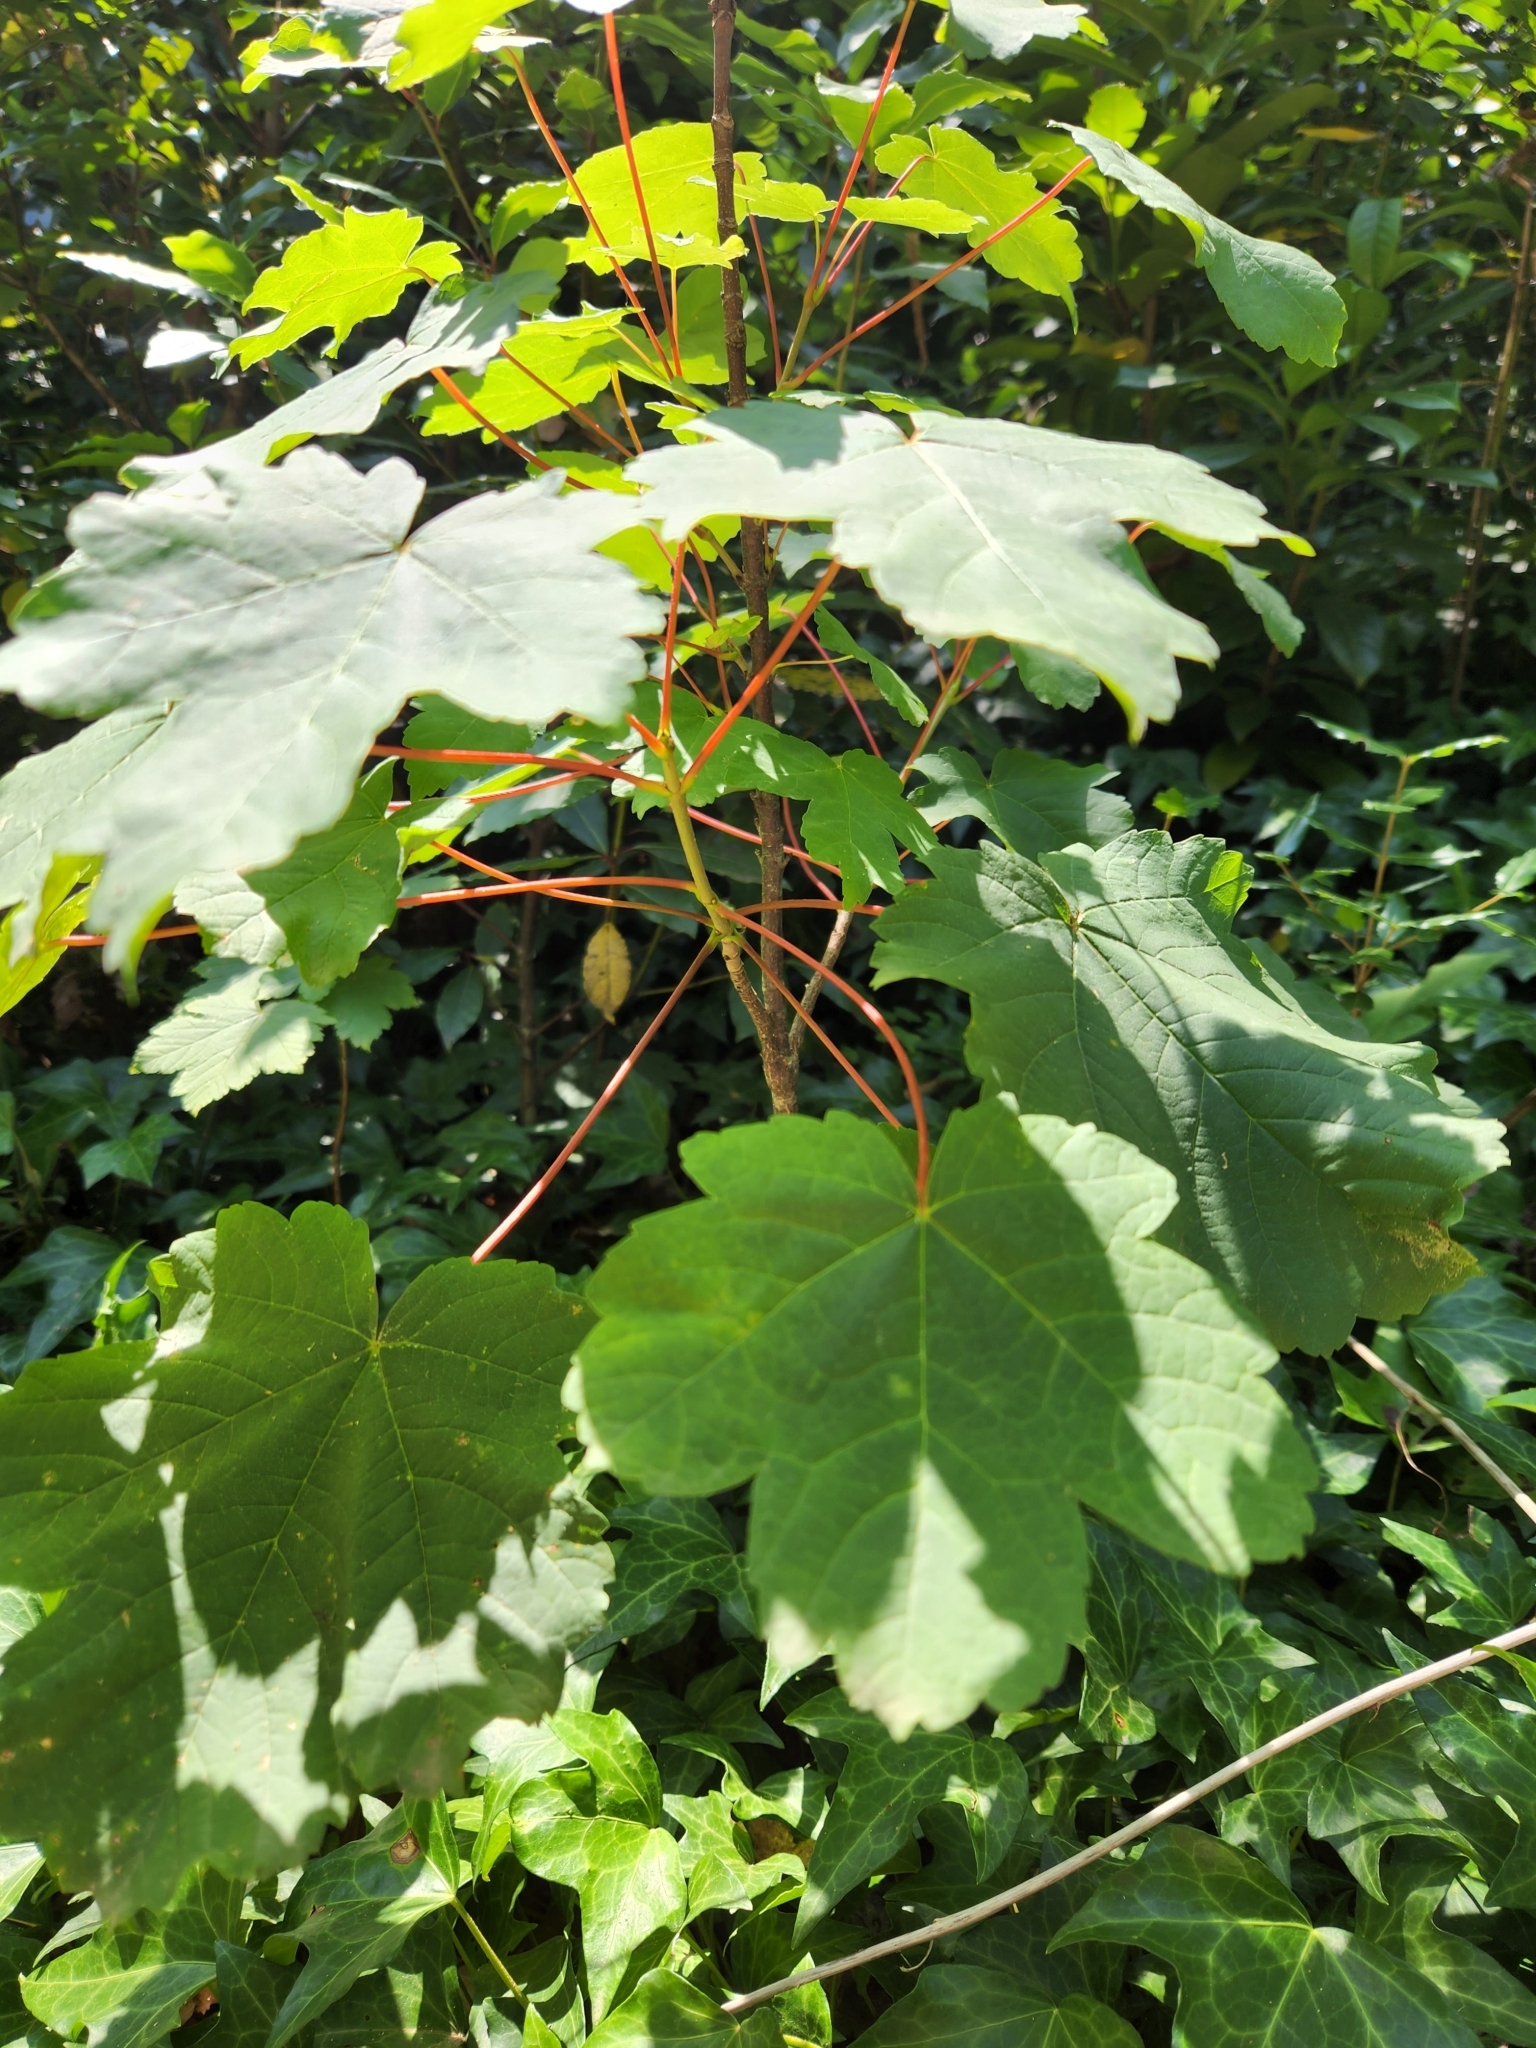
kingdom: Plantae
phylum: Tracheophyta
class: Magnoliopsida
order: Sapindales
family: Sapindaceae
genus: Acer
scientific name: Acer pseudoplatanus
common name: Sycamore
